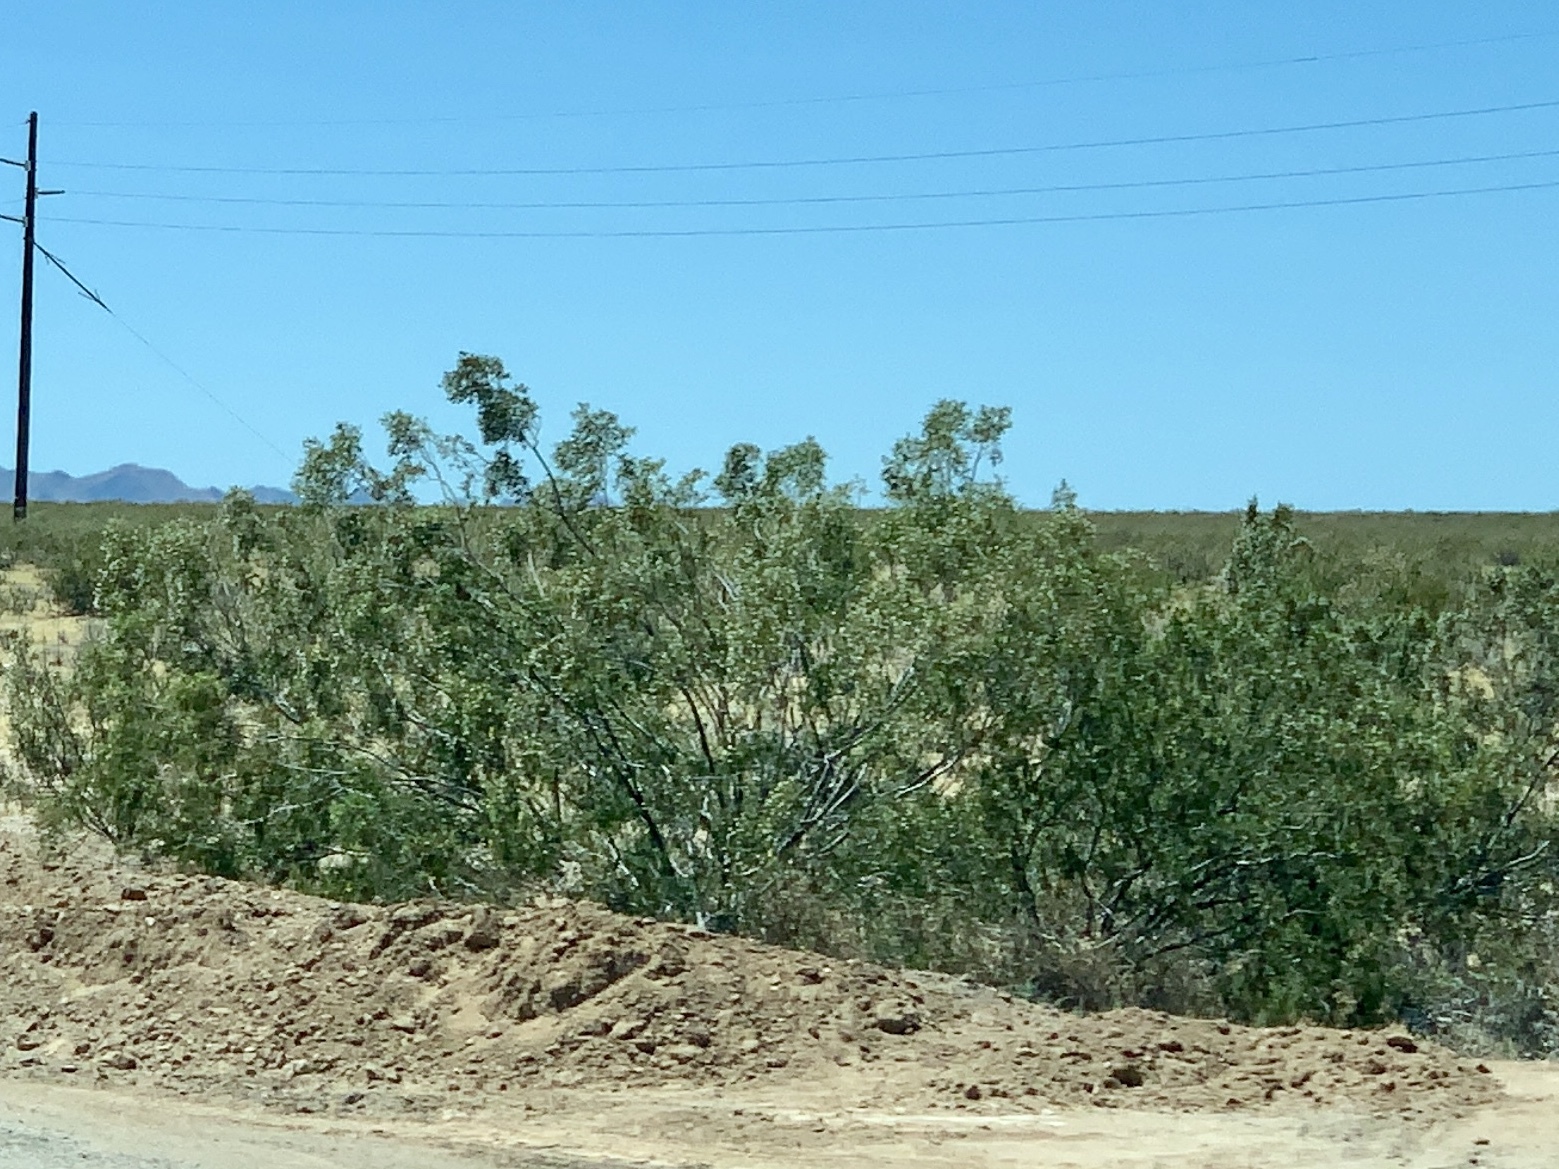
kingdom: Plantae
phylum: Tracheophyta
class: Magnoliopsida
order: Zygophyllales
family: Zygophyllaceae
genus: Larrea
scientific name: Larrea tridentata
